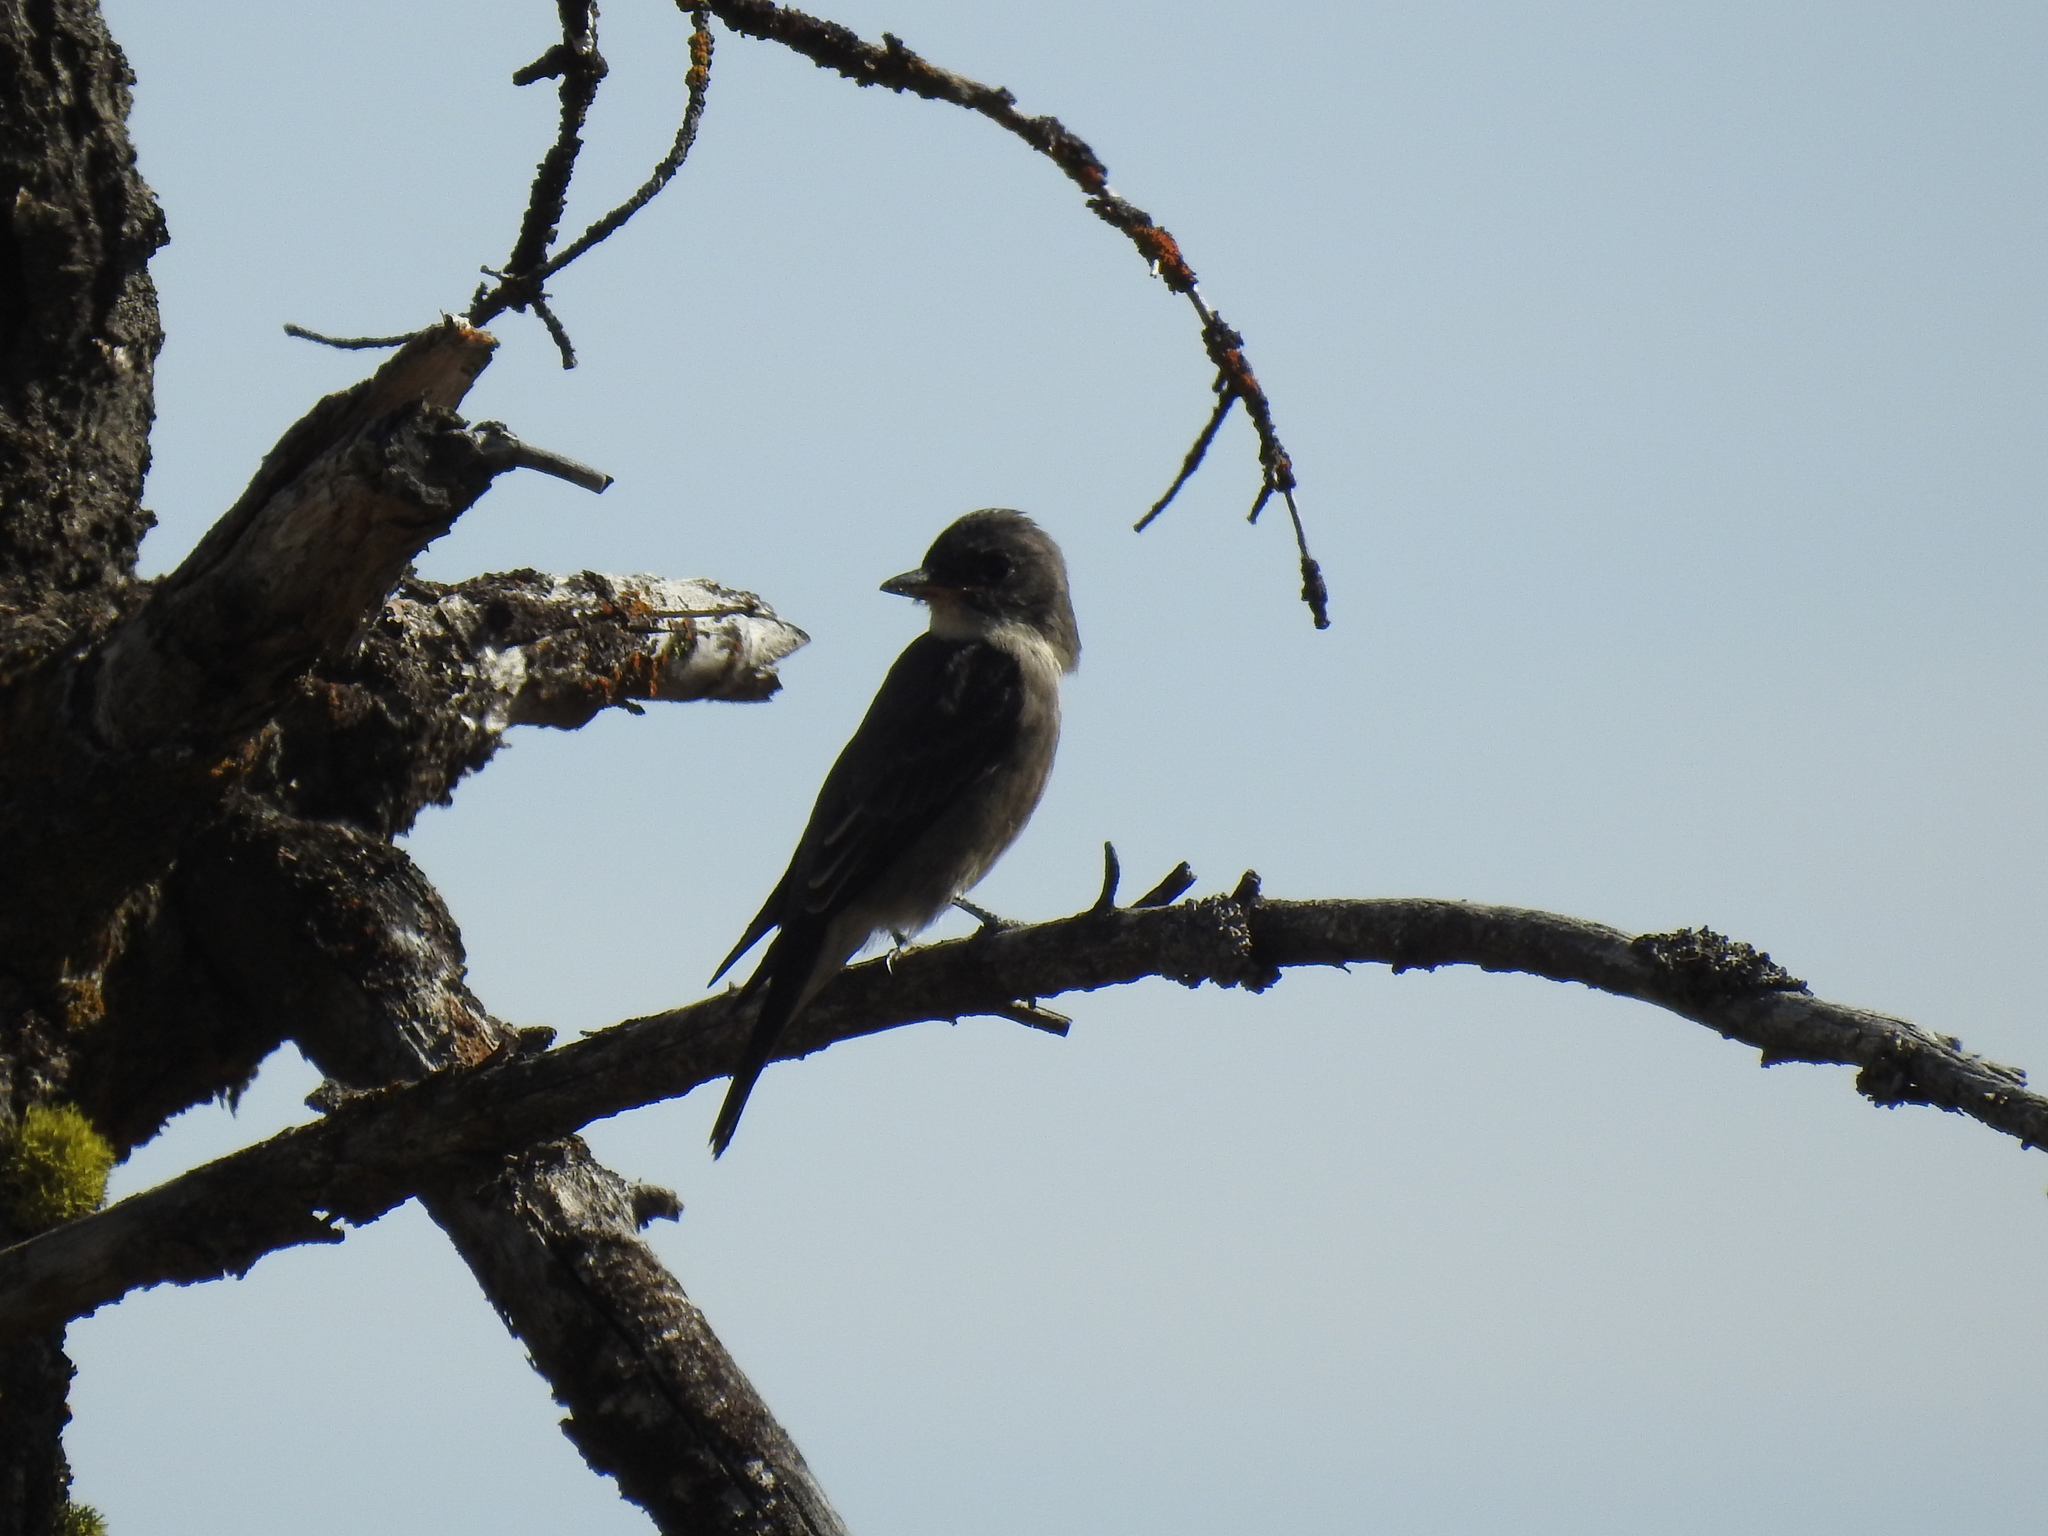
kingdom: Animalia
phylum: Chordata
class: Aves
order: Passeriformes
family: Tyrannidae
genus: Contopus
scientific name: Contopus cooperi
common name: Olive-sided flycatcher
